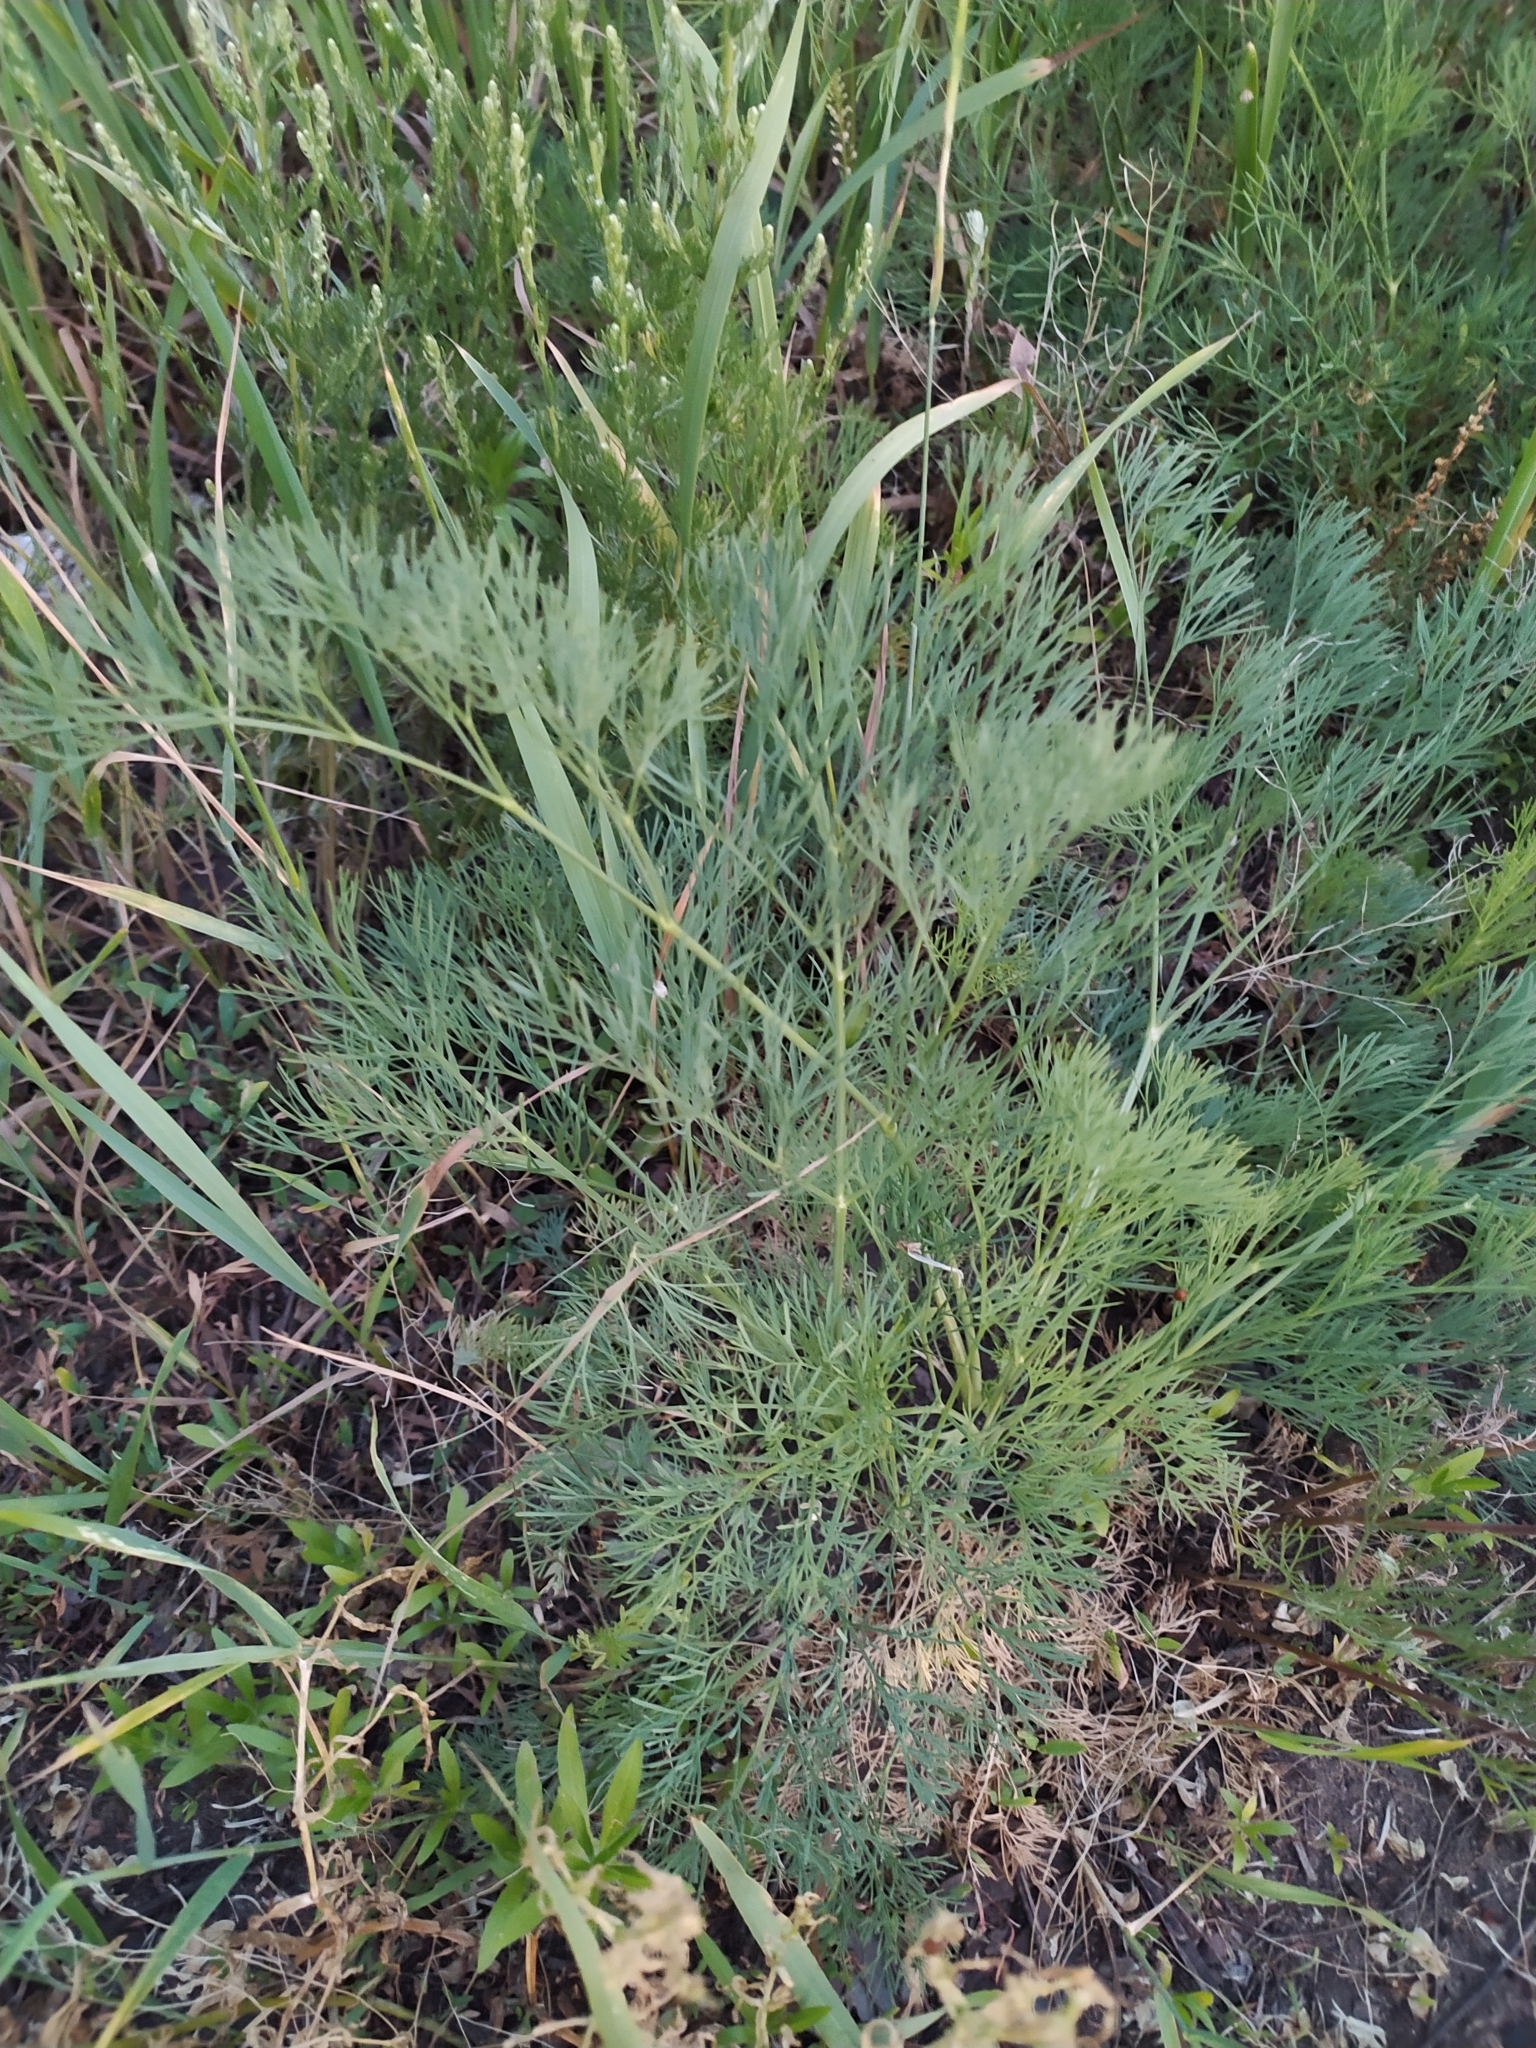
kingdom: Plantae
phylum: Tracheophyta
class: Magnoliopsida
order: Apiales
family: Apiaceae
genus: Seseli
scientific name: Seseli arenarium
